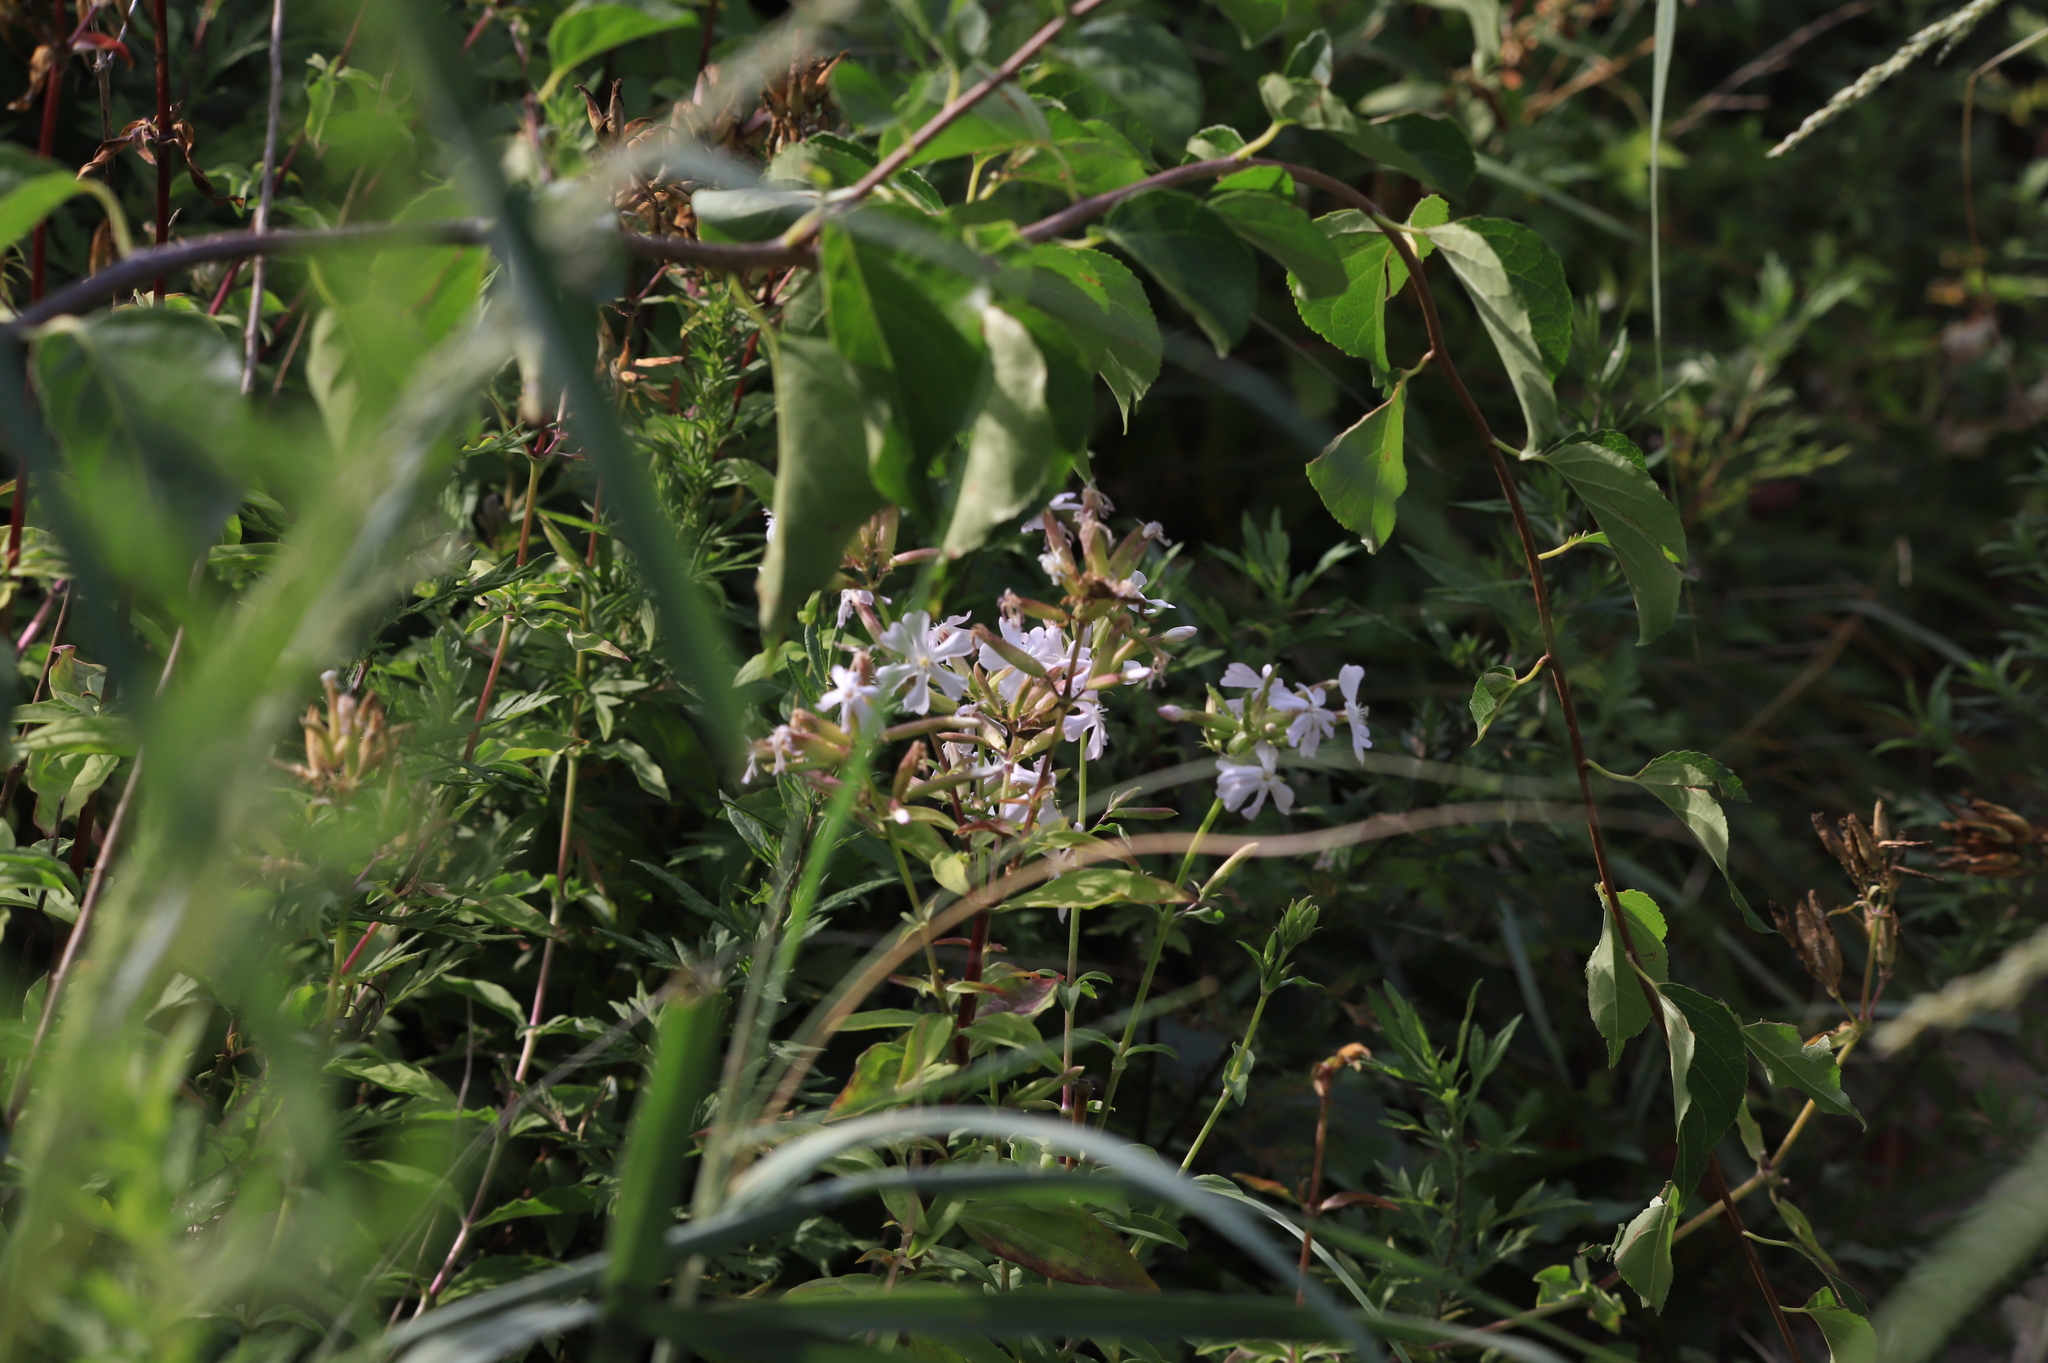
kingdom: Plantae
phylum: Tracheophyta
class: Magnoliopsida
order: Caryophyllales
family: Caryophyllaceae
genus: Saponaria
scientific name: Saponaria officinalis
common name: Soapwort
